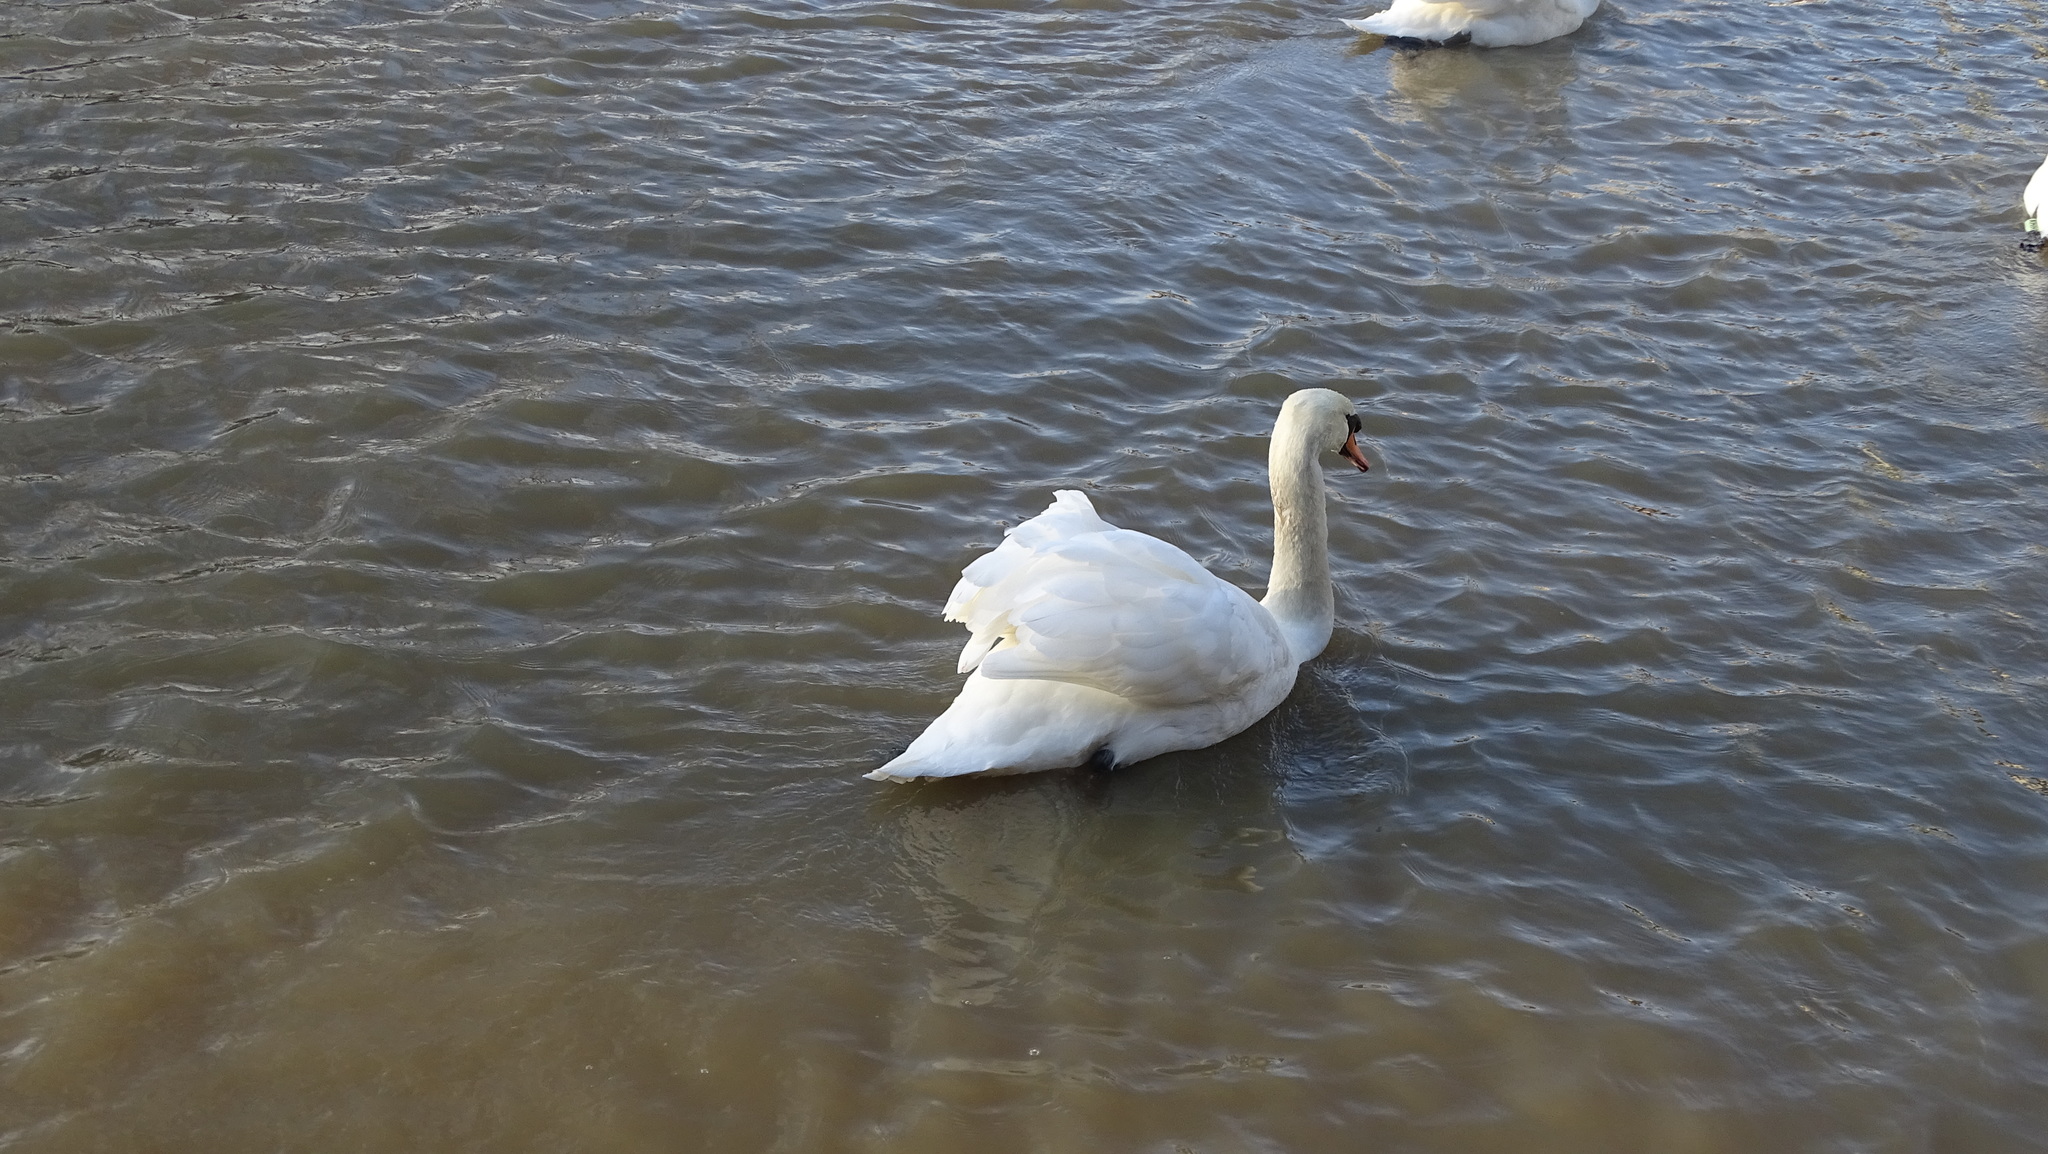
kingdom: Animalia
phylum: Chordata
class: Aves
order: Anseriformes
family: Anatidae
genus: Cygnus
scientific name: Cygnus olor
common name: Mute swan
